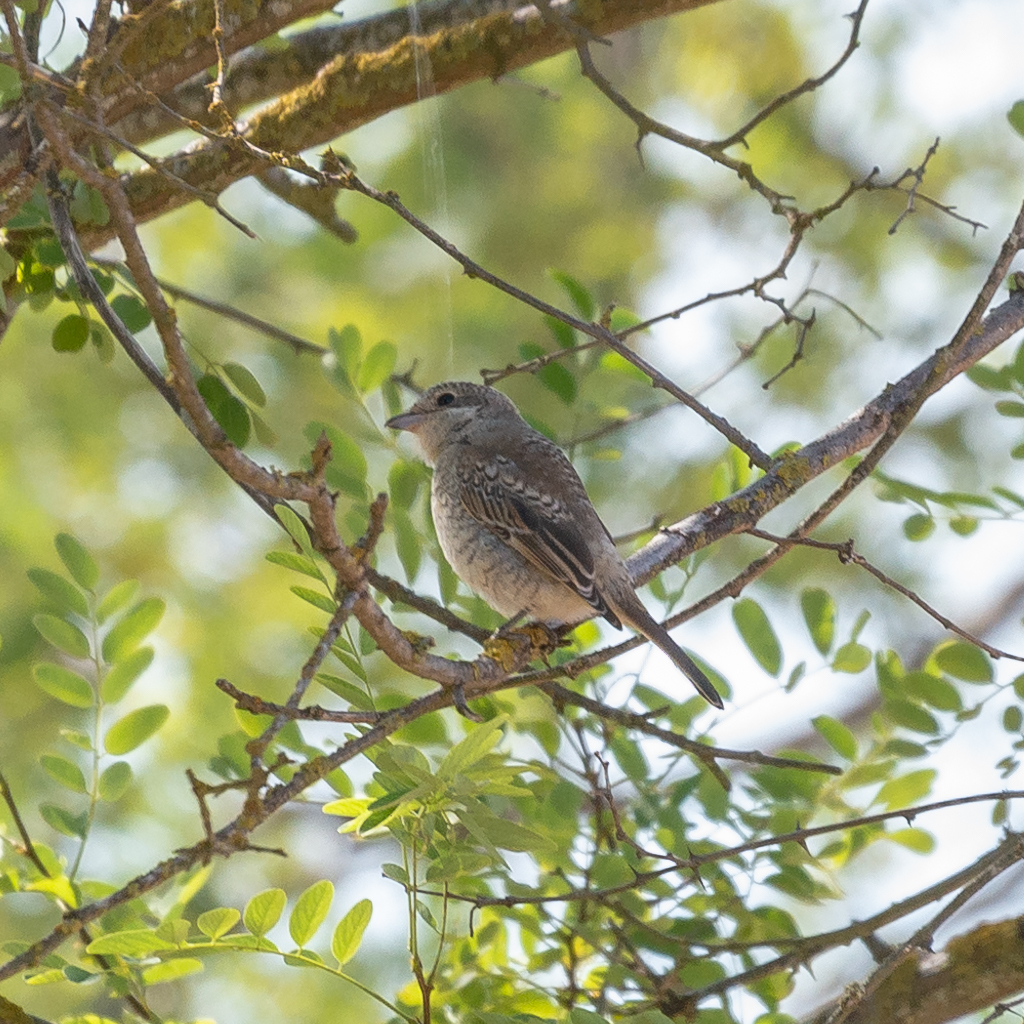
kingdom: Animalia
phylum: Chordata
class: Aves
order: Passeriformes
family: Laniidae
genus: Lanius
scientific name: Lanius senator
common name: Woodchat shrike
